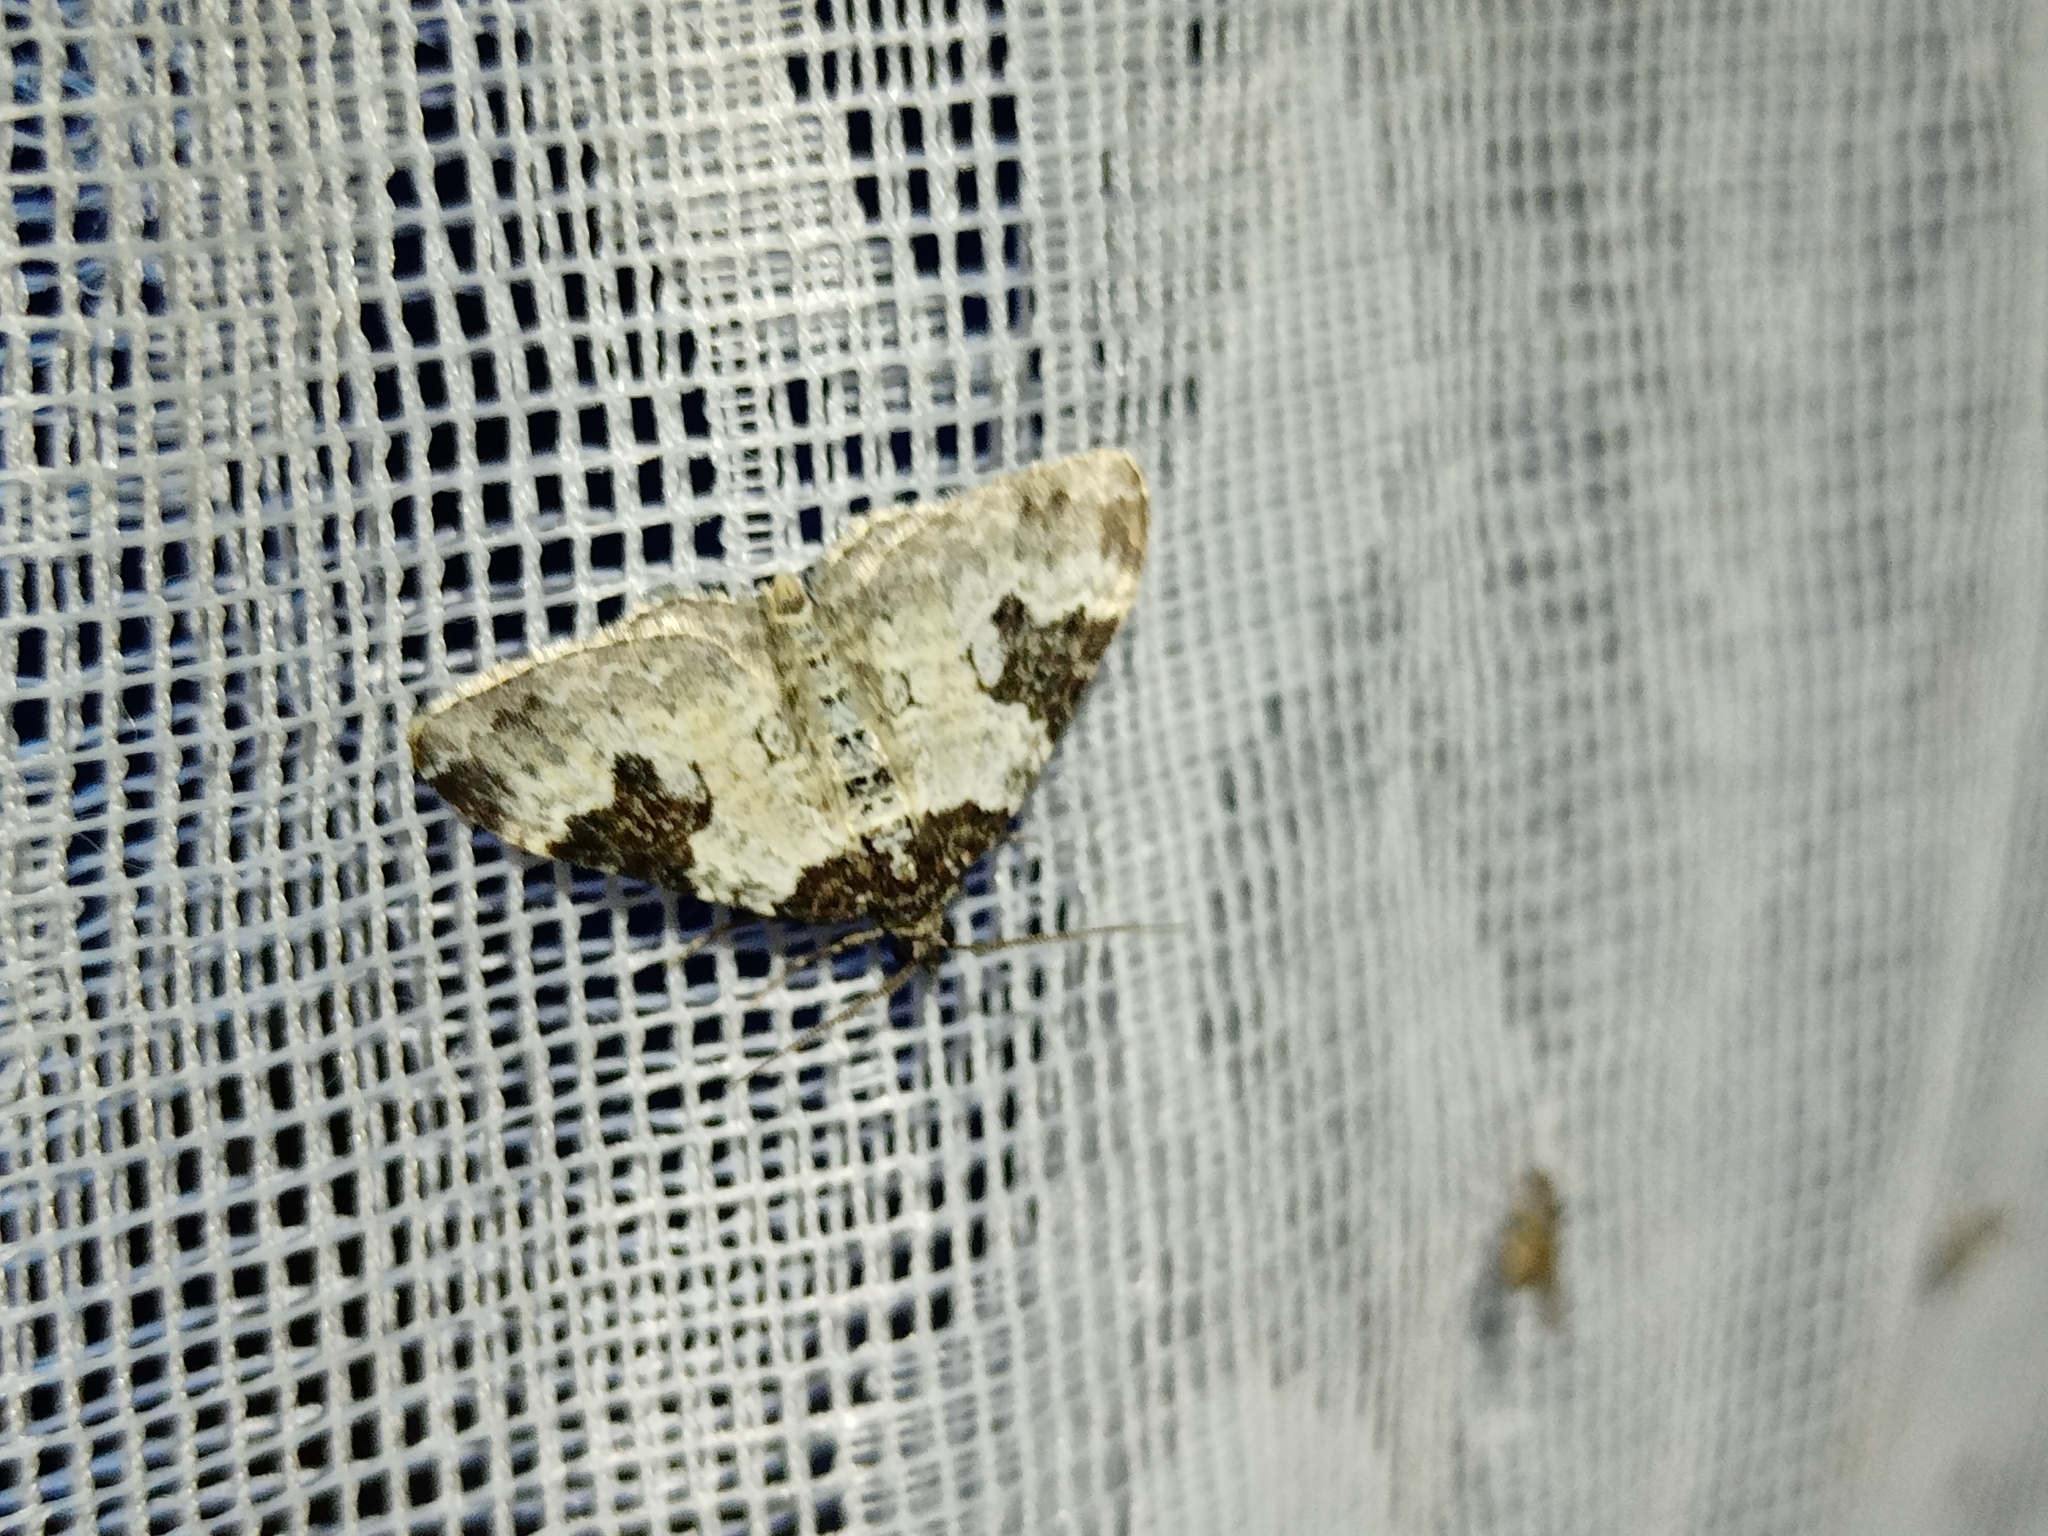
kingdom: Animalia
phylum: Arthropoda
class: Insecta
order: Lepidoptera
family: Geometridae
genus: Xanthorhoe
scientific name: Xanthorhoe fluctuata
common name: Garden carpet
